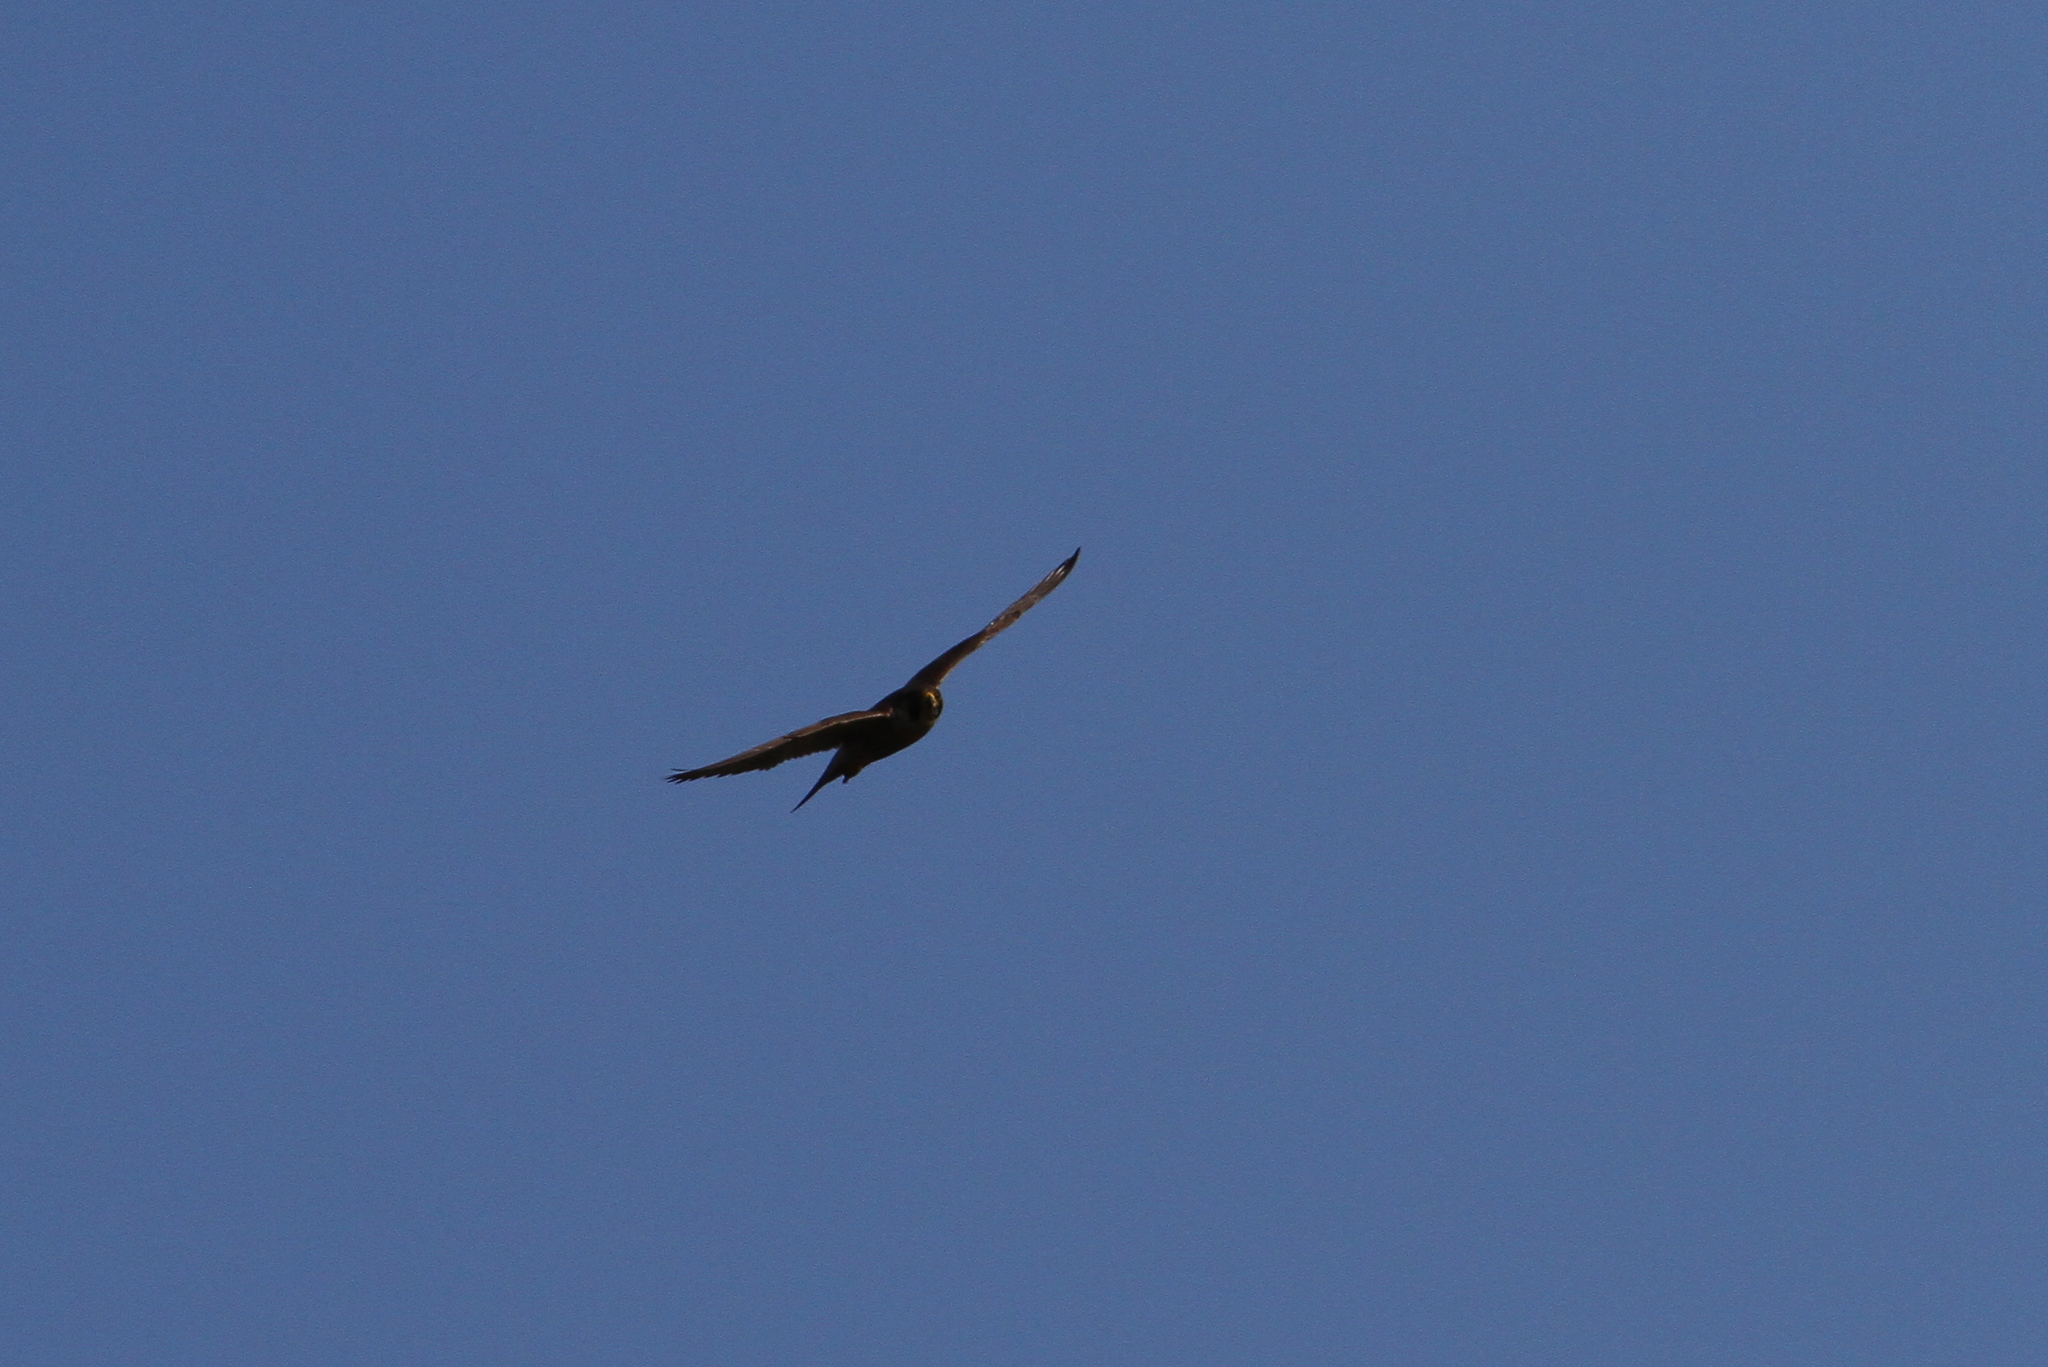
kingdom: Animalia
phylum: Chordata
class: Aves
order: Falconiformes
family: Falconidae
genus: Falco
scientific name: Falco peregrinus
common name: Peregrine falcon
